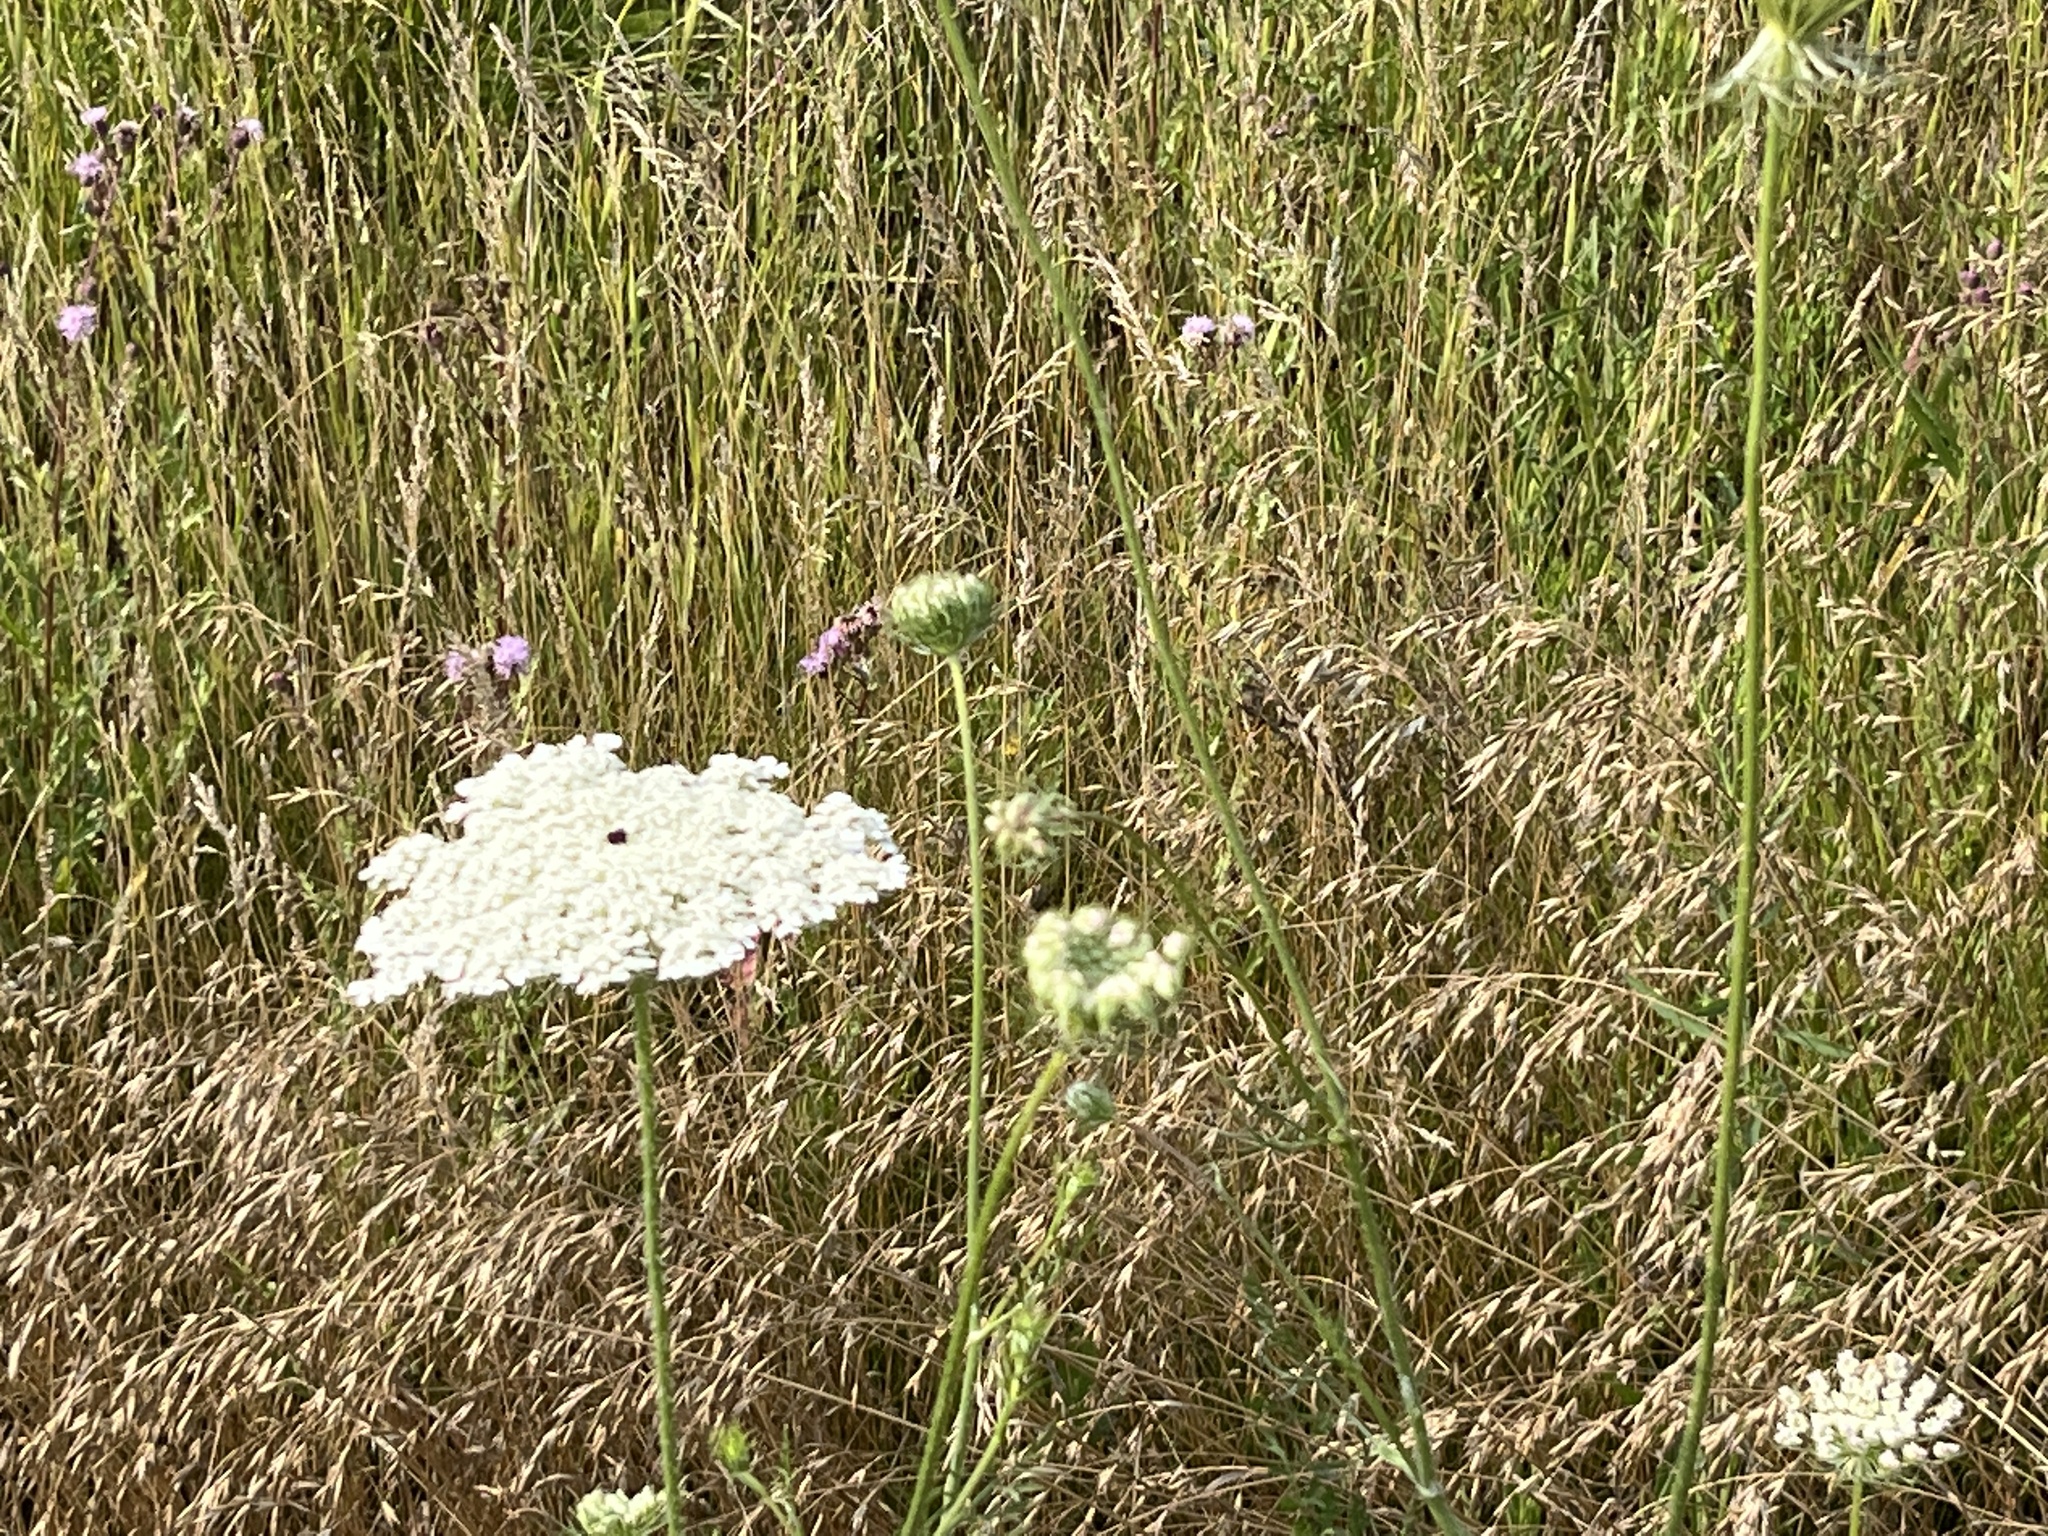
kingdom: Plantae
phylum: Tracheophyta
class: Magnoliopsida
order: Apiales
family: Apiaceae
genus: Daucus
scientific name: Daucus carota
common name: Wild carrot
